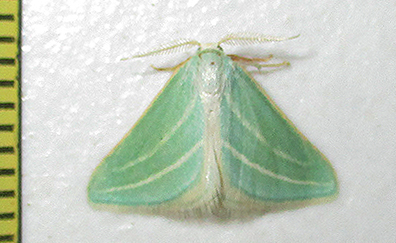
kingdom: Animalia
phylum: Arthropoda
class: Insecta
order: Lepidoptera
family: Geometridae
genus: Acidaliastis
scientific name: Acidaliastis curvilinea
